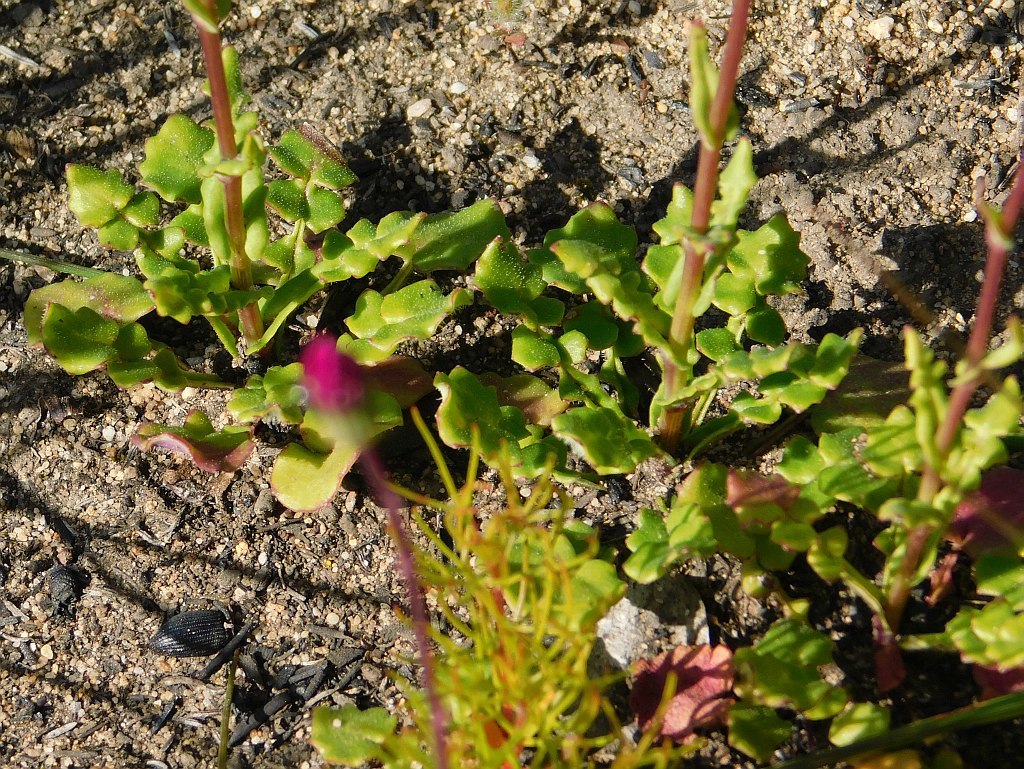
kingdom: Plantae
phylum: Tracheophyta
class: Magnoliopsida
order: Asterales
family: Asteraceae
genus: Senecio
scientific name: Senecio cymbalariifolius
